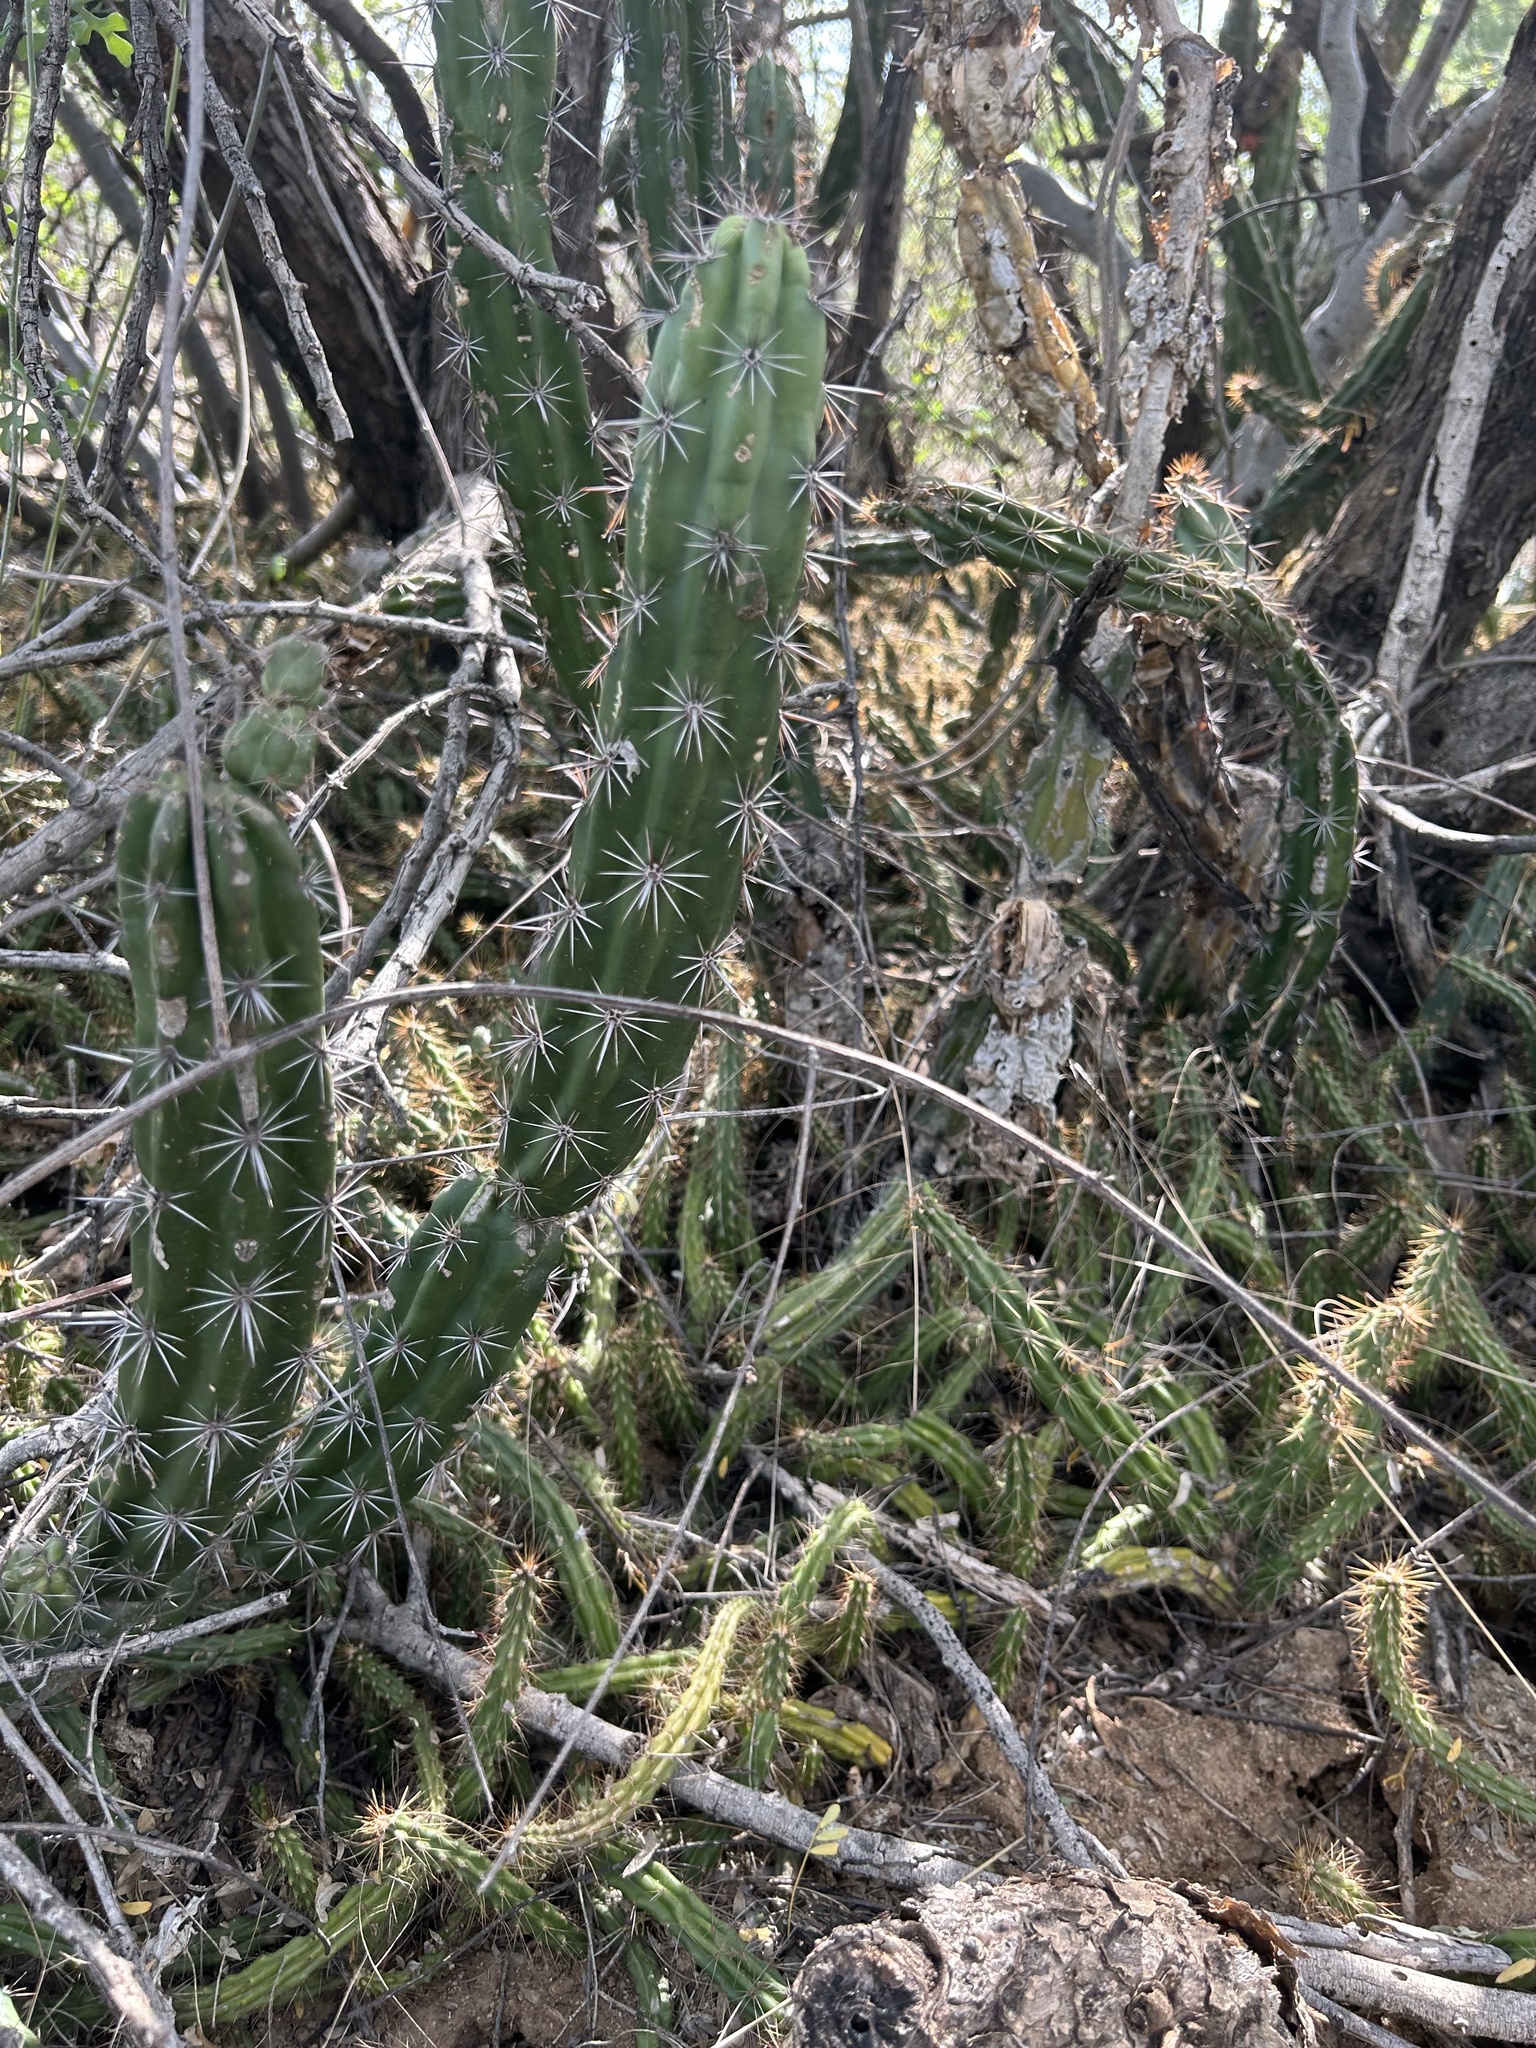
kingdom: Plantae
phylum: Tracheophyta
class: Magnoliopsida
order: Caryophyllales
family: Cactaceae
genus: Stenocereus
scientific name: Stenocereus alamosensis
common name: Octopus cactus
